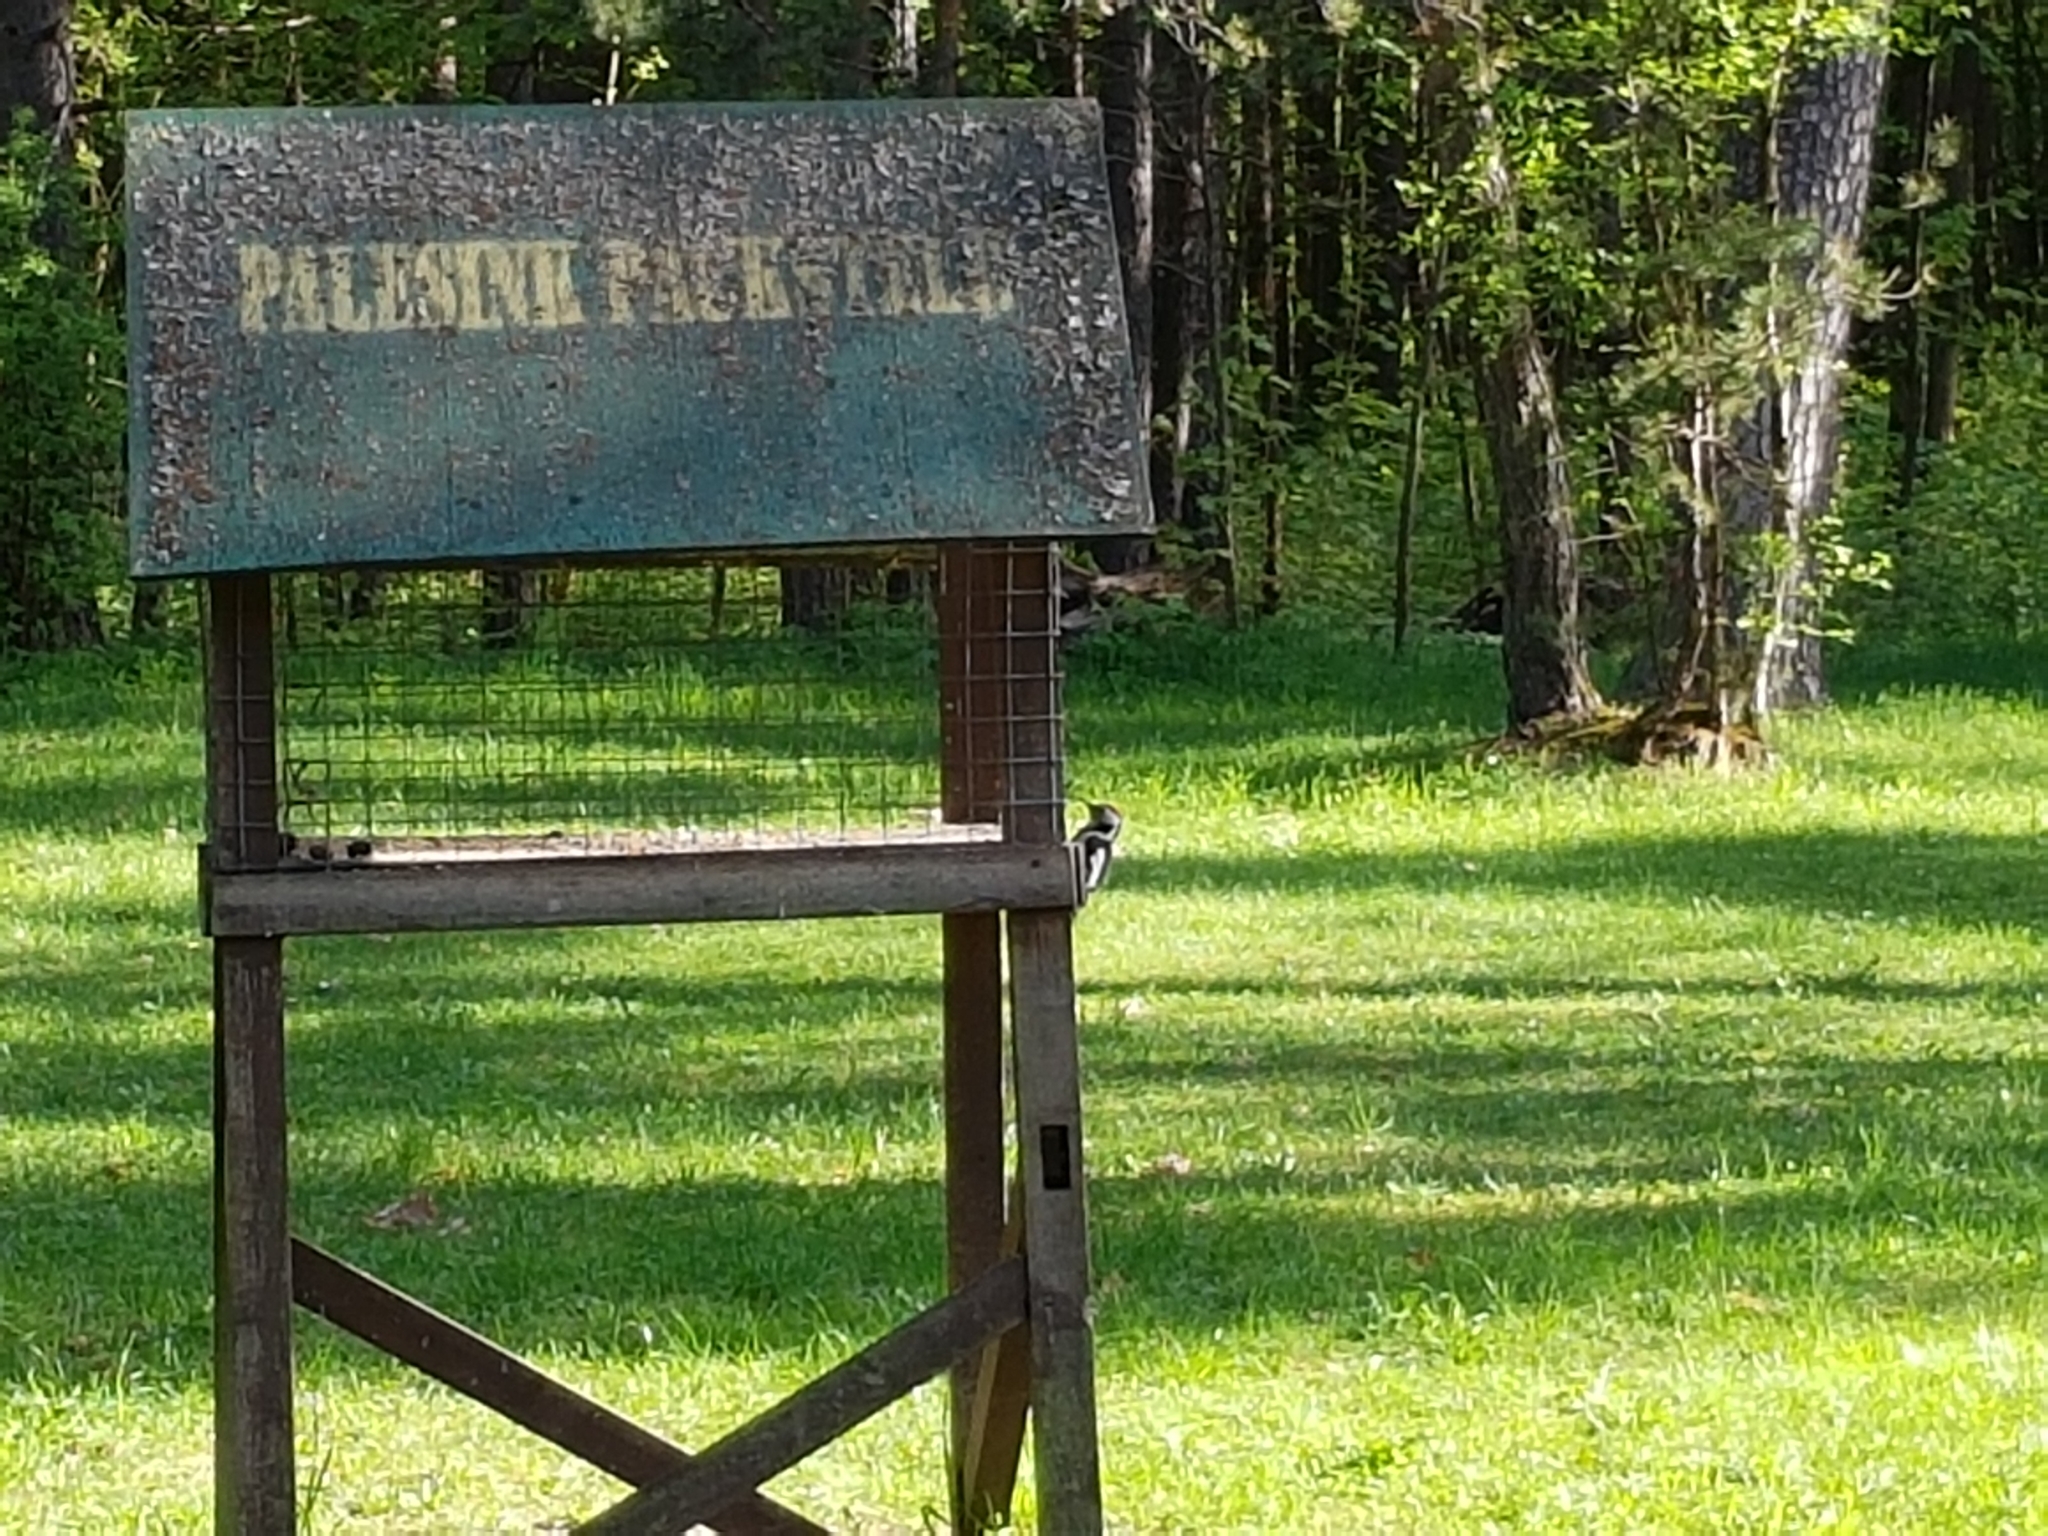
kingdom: Animalia
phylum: Chordata
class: Aves
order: Piciformes
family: Picidae
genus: Dendrocoptes
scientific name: Dendrocoptes medius
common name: Middle spotted woodpecker
